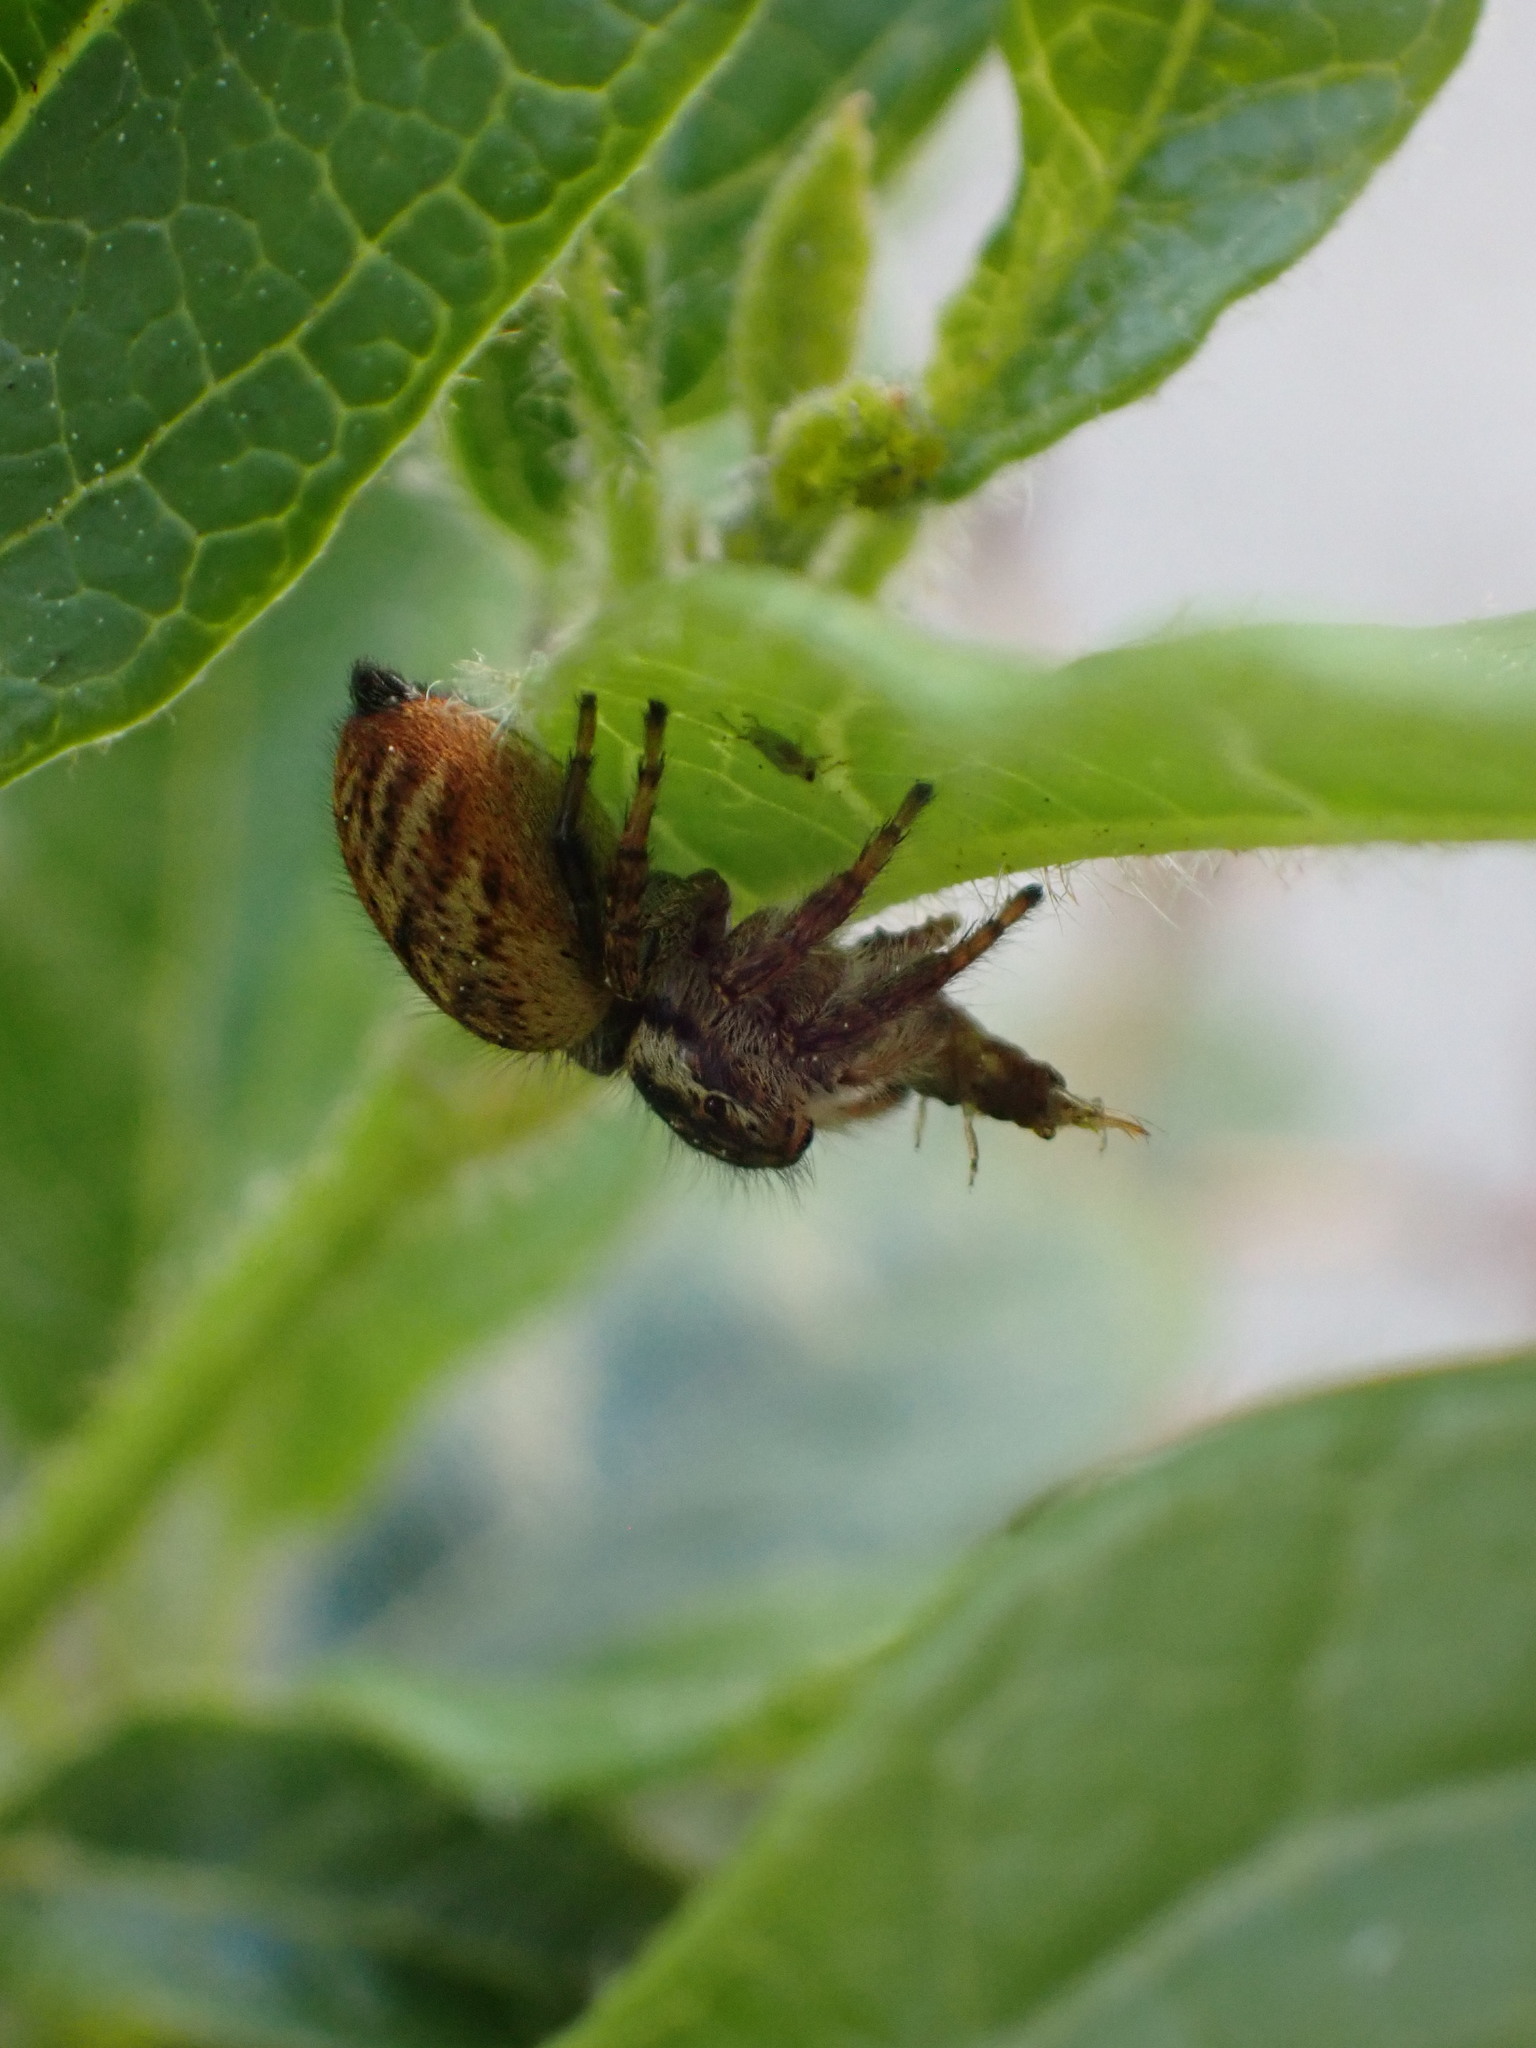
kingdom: Animalia
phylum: Arthropoda
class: Arachnida
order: Araneae
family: Salticidae
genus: Carrhotus
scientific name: Carrhotus xanthogramma
